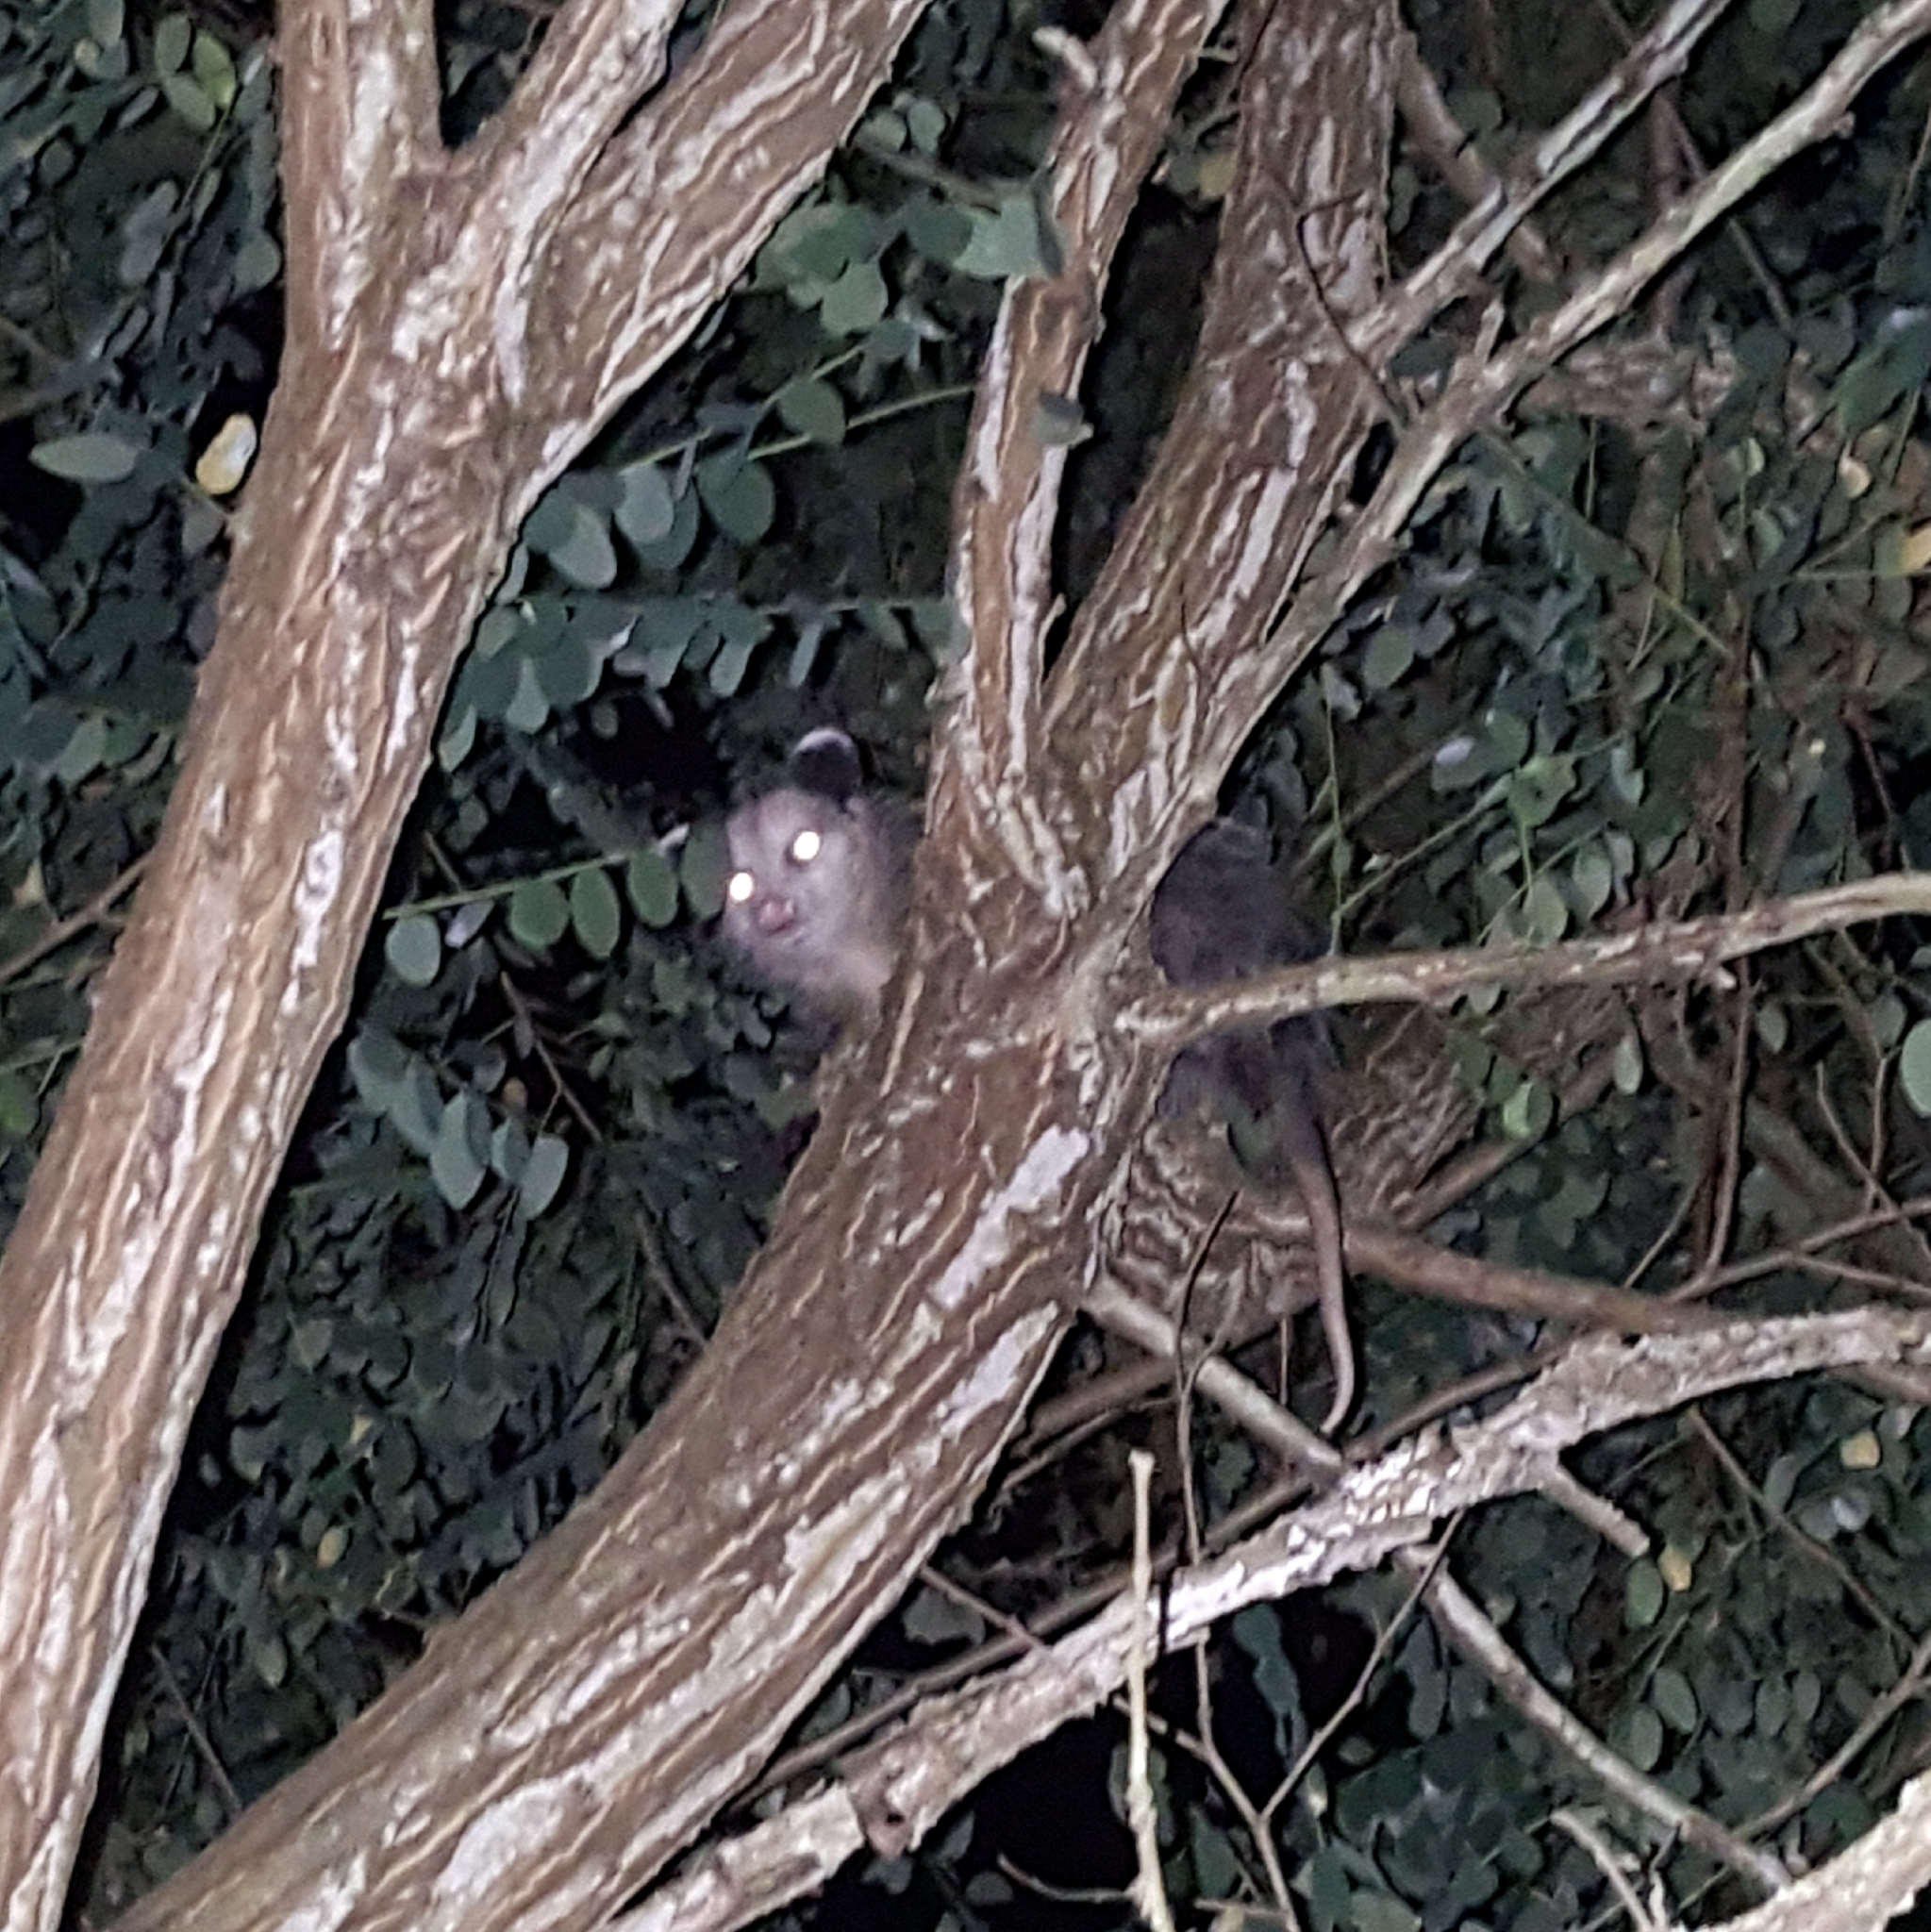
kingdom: Animalia
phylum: Chordata
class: Mammalia
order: Didelphimorphia
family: Didelphidae
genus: Didelphis
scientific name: Didelphis virginiana
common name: Virginia opossum
